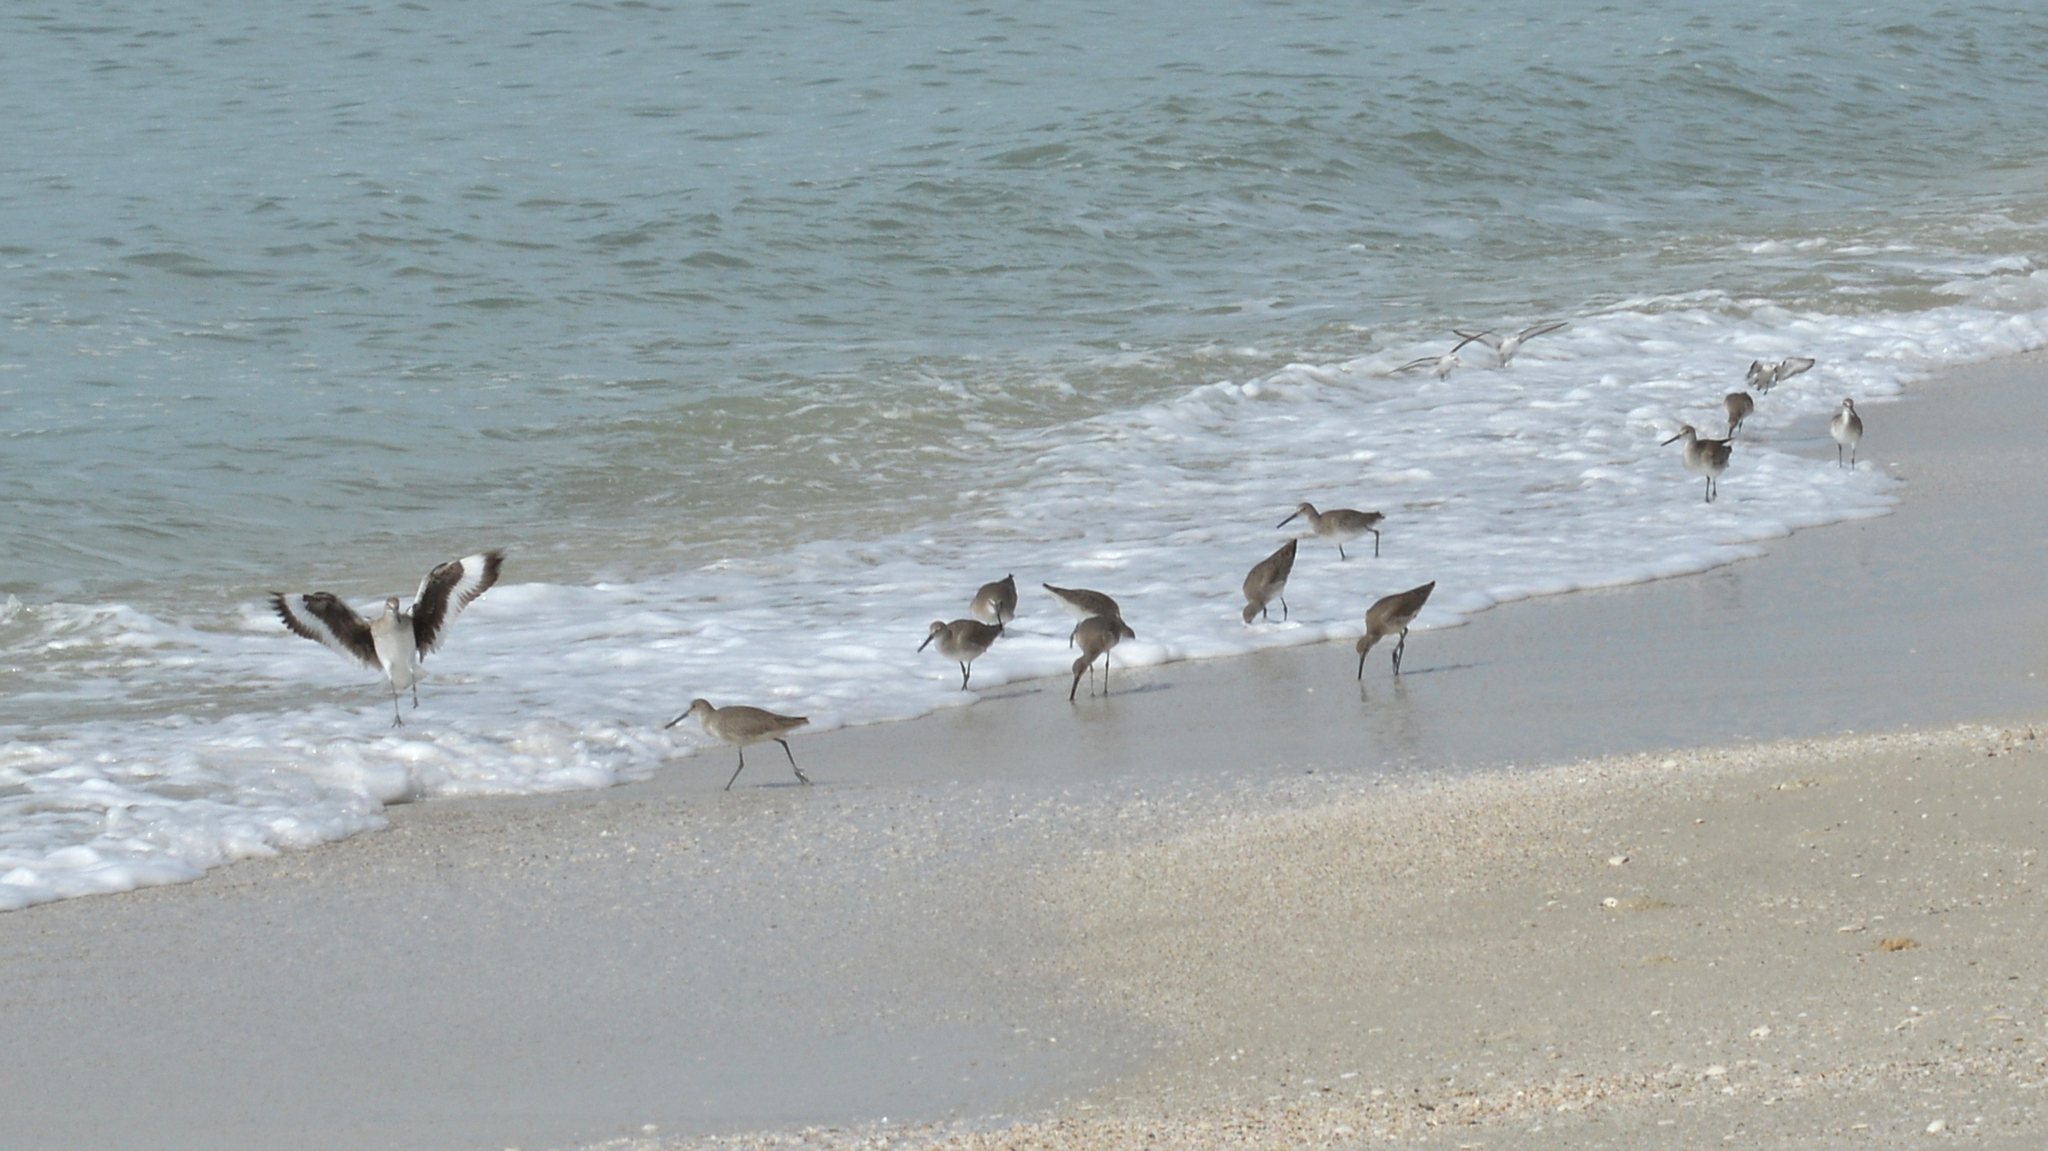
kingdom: Animalia
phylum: Chordata
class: Aves
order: Charadriiformes
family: Scolopacidae
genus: Tringa
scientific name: Tringa semipalmata
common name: Willet
